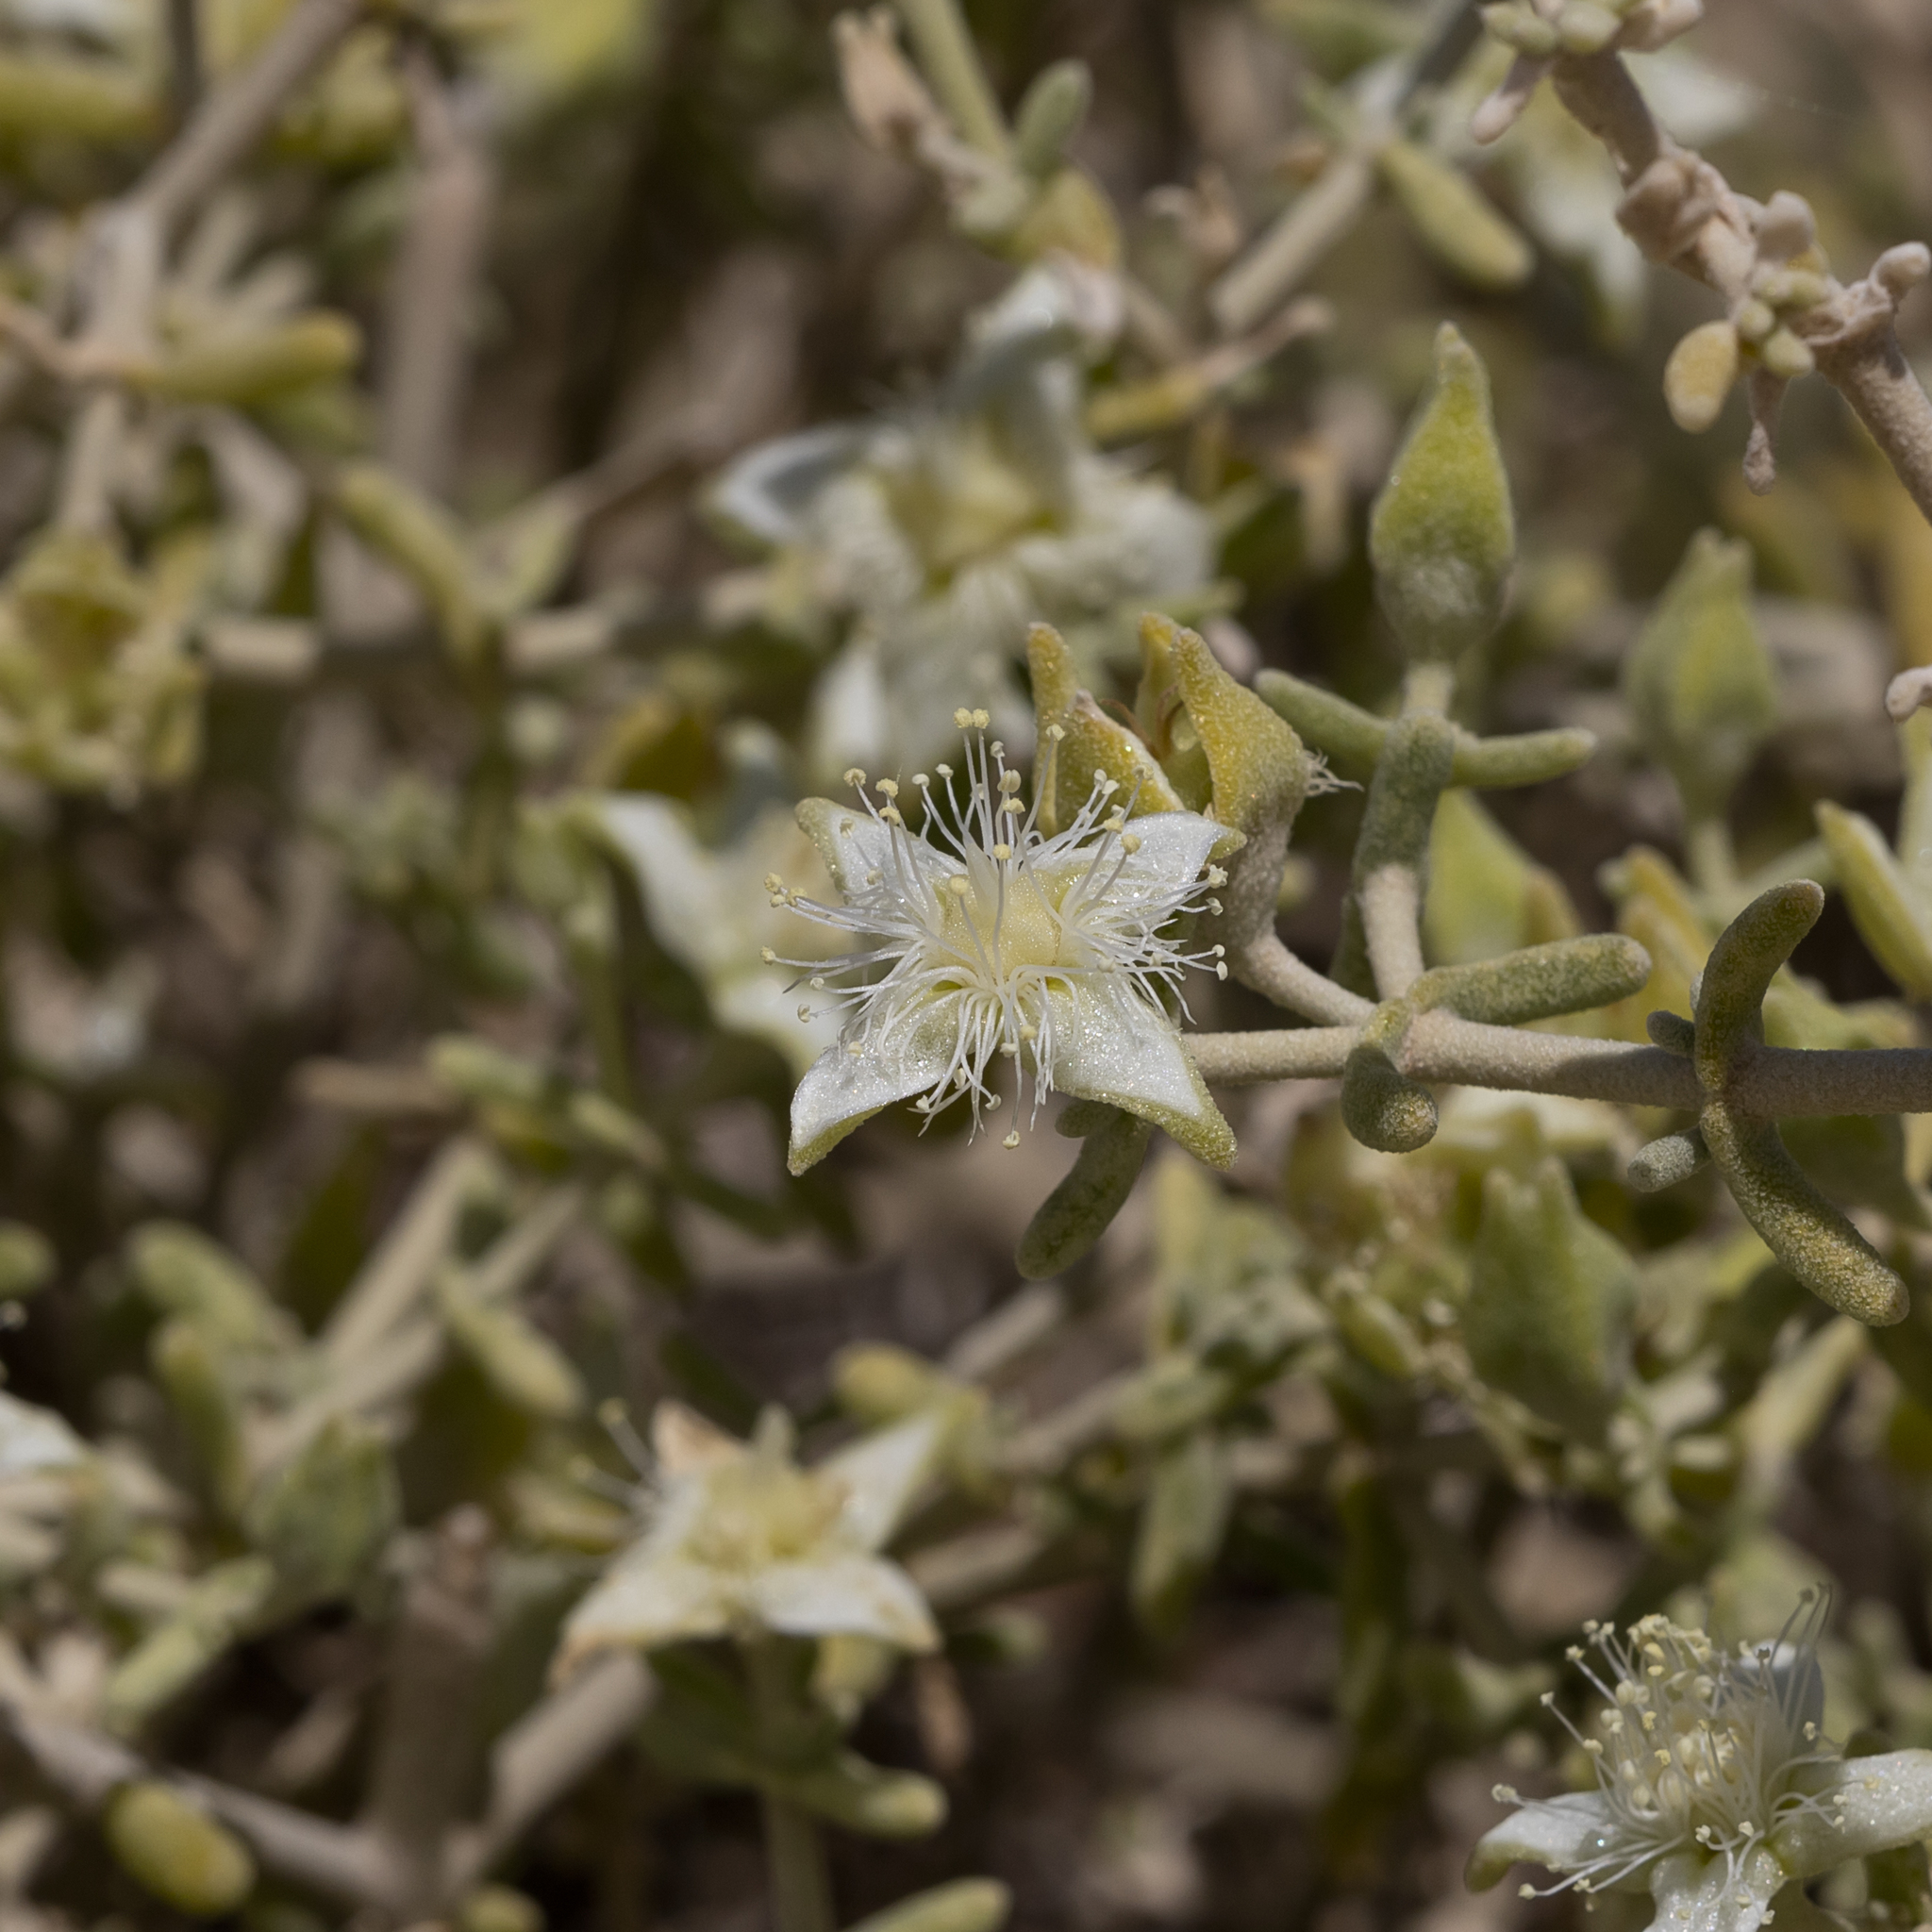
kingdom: Plantae
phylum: Tracheophyta
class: Magnoliopsida
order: Caryophyllales
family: Aizoaceae
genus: Gunniopsis
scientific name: Gunniopsis quadrifida
